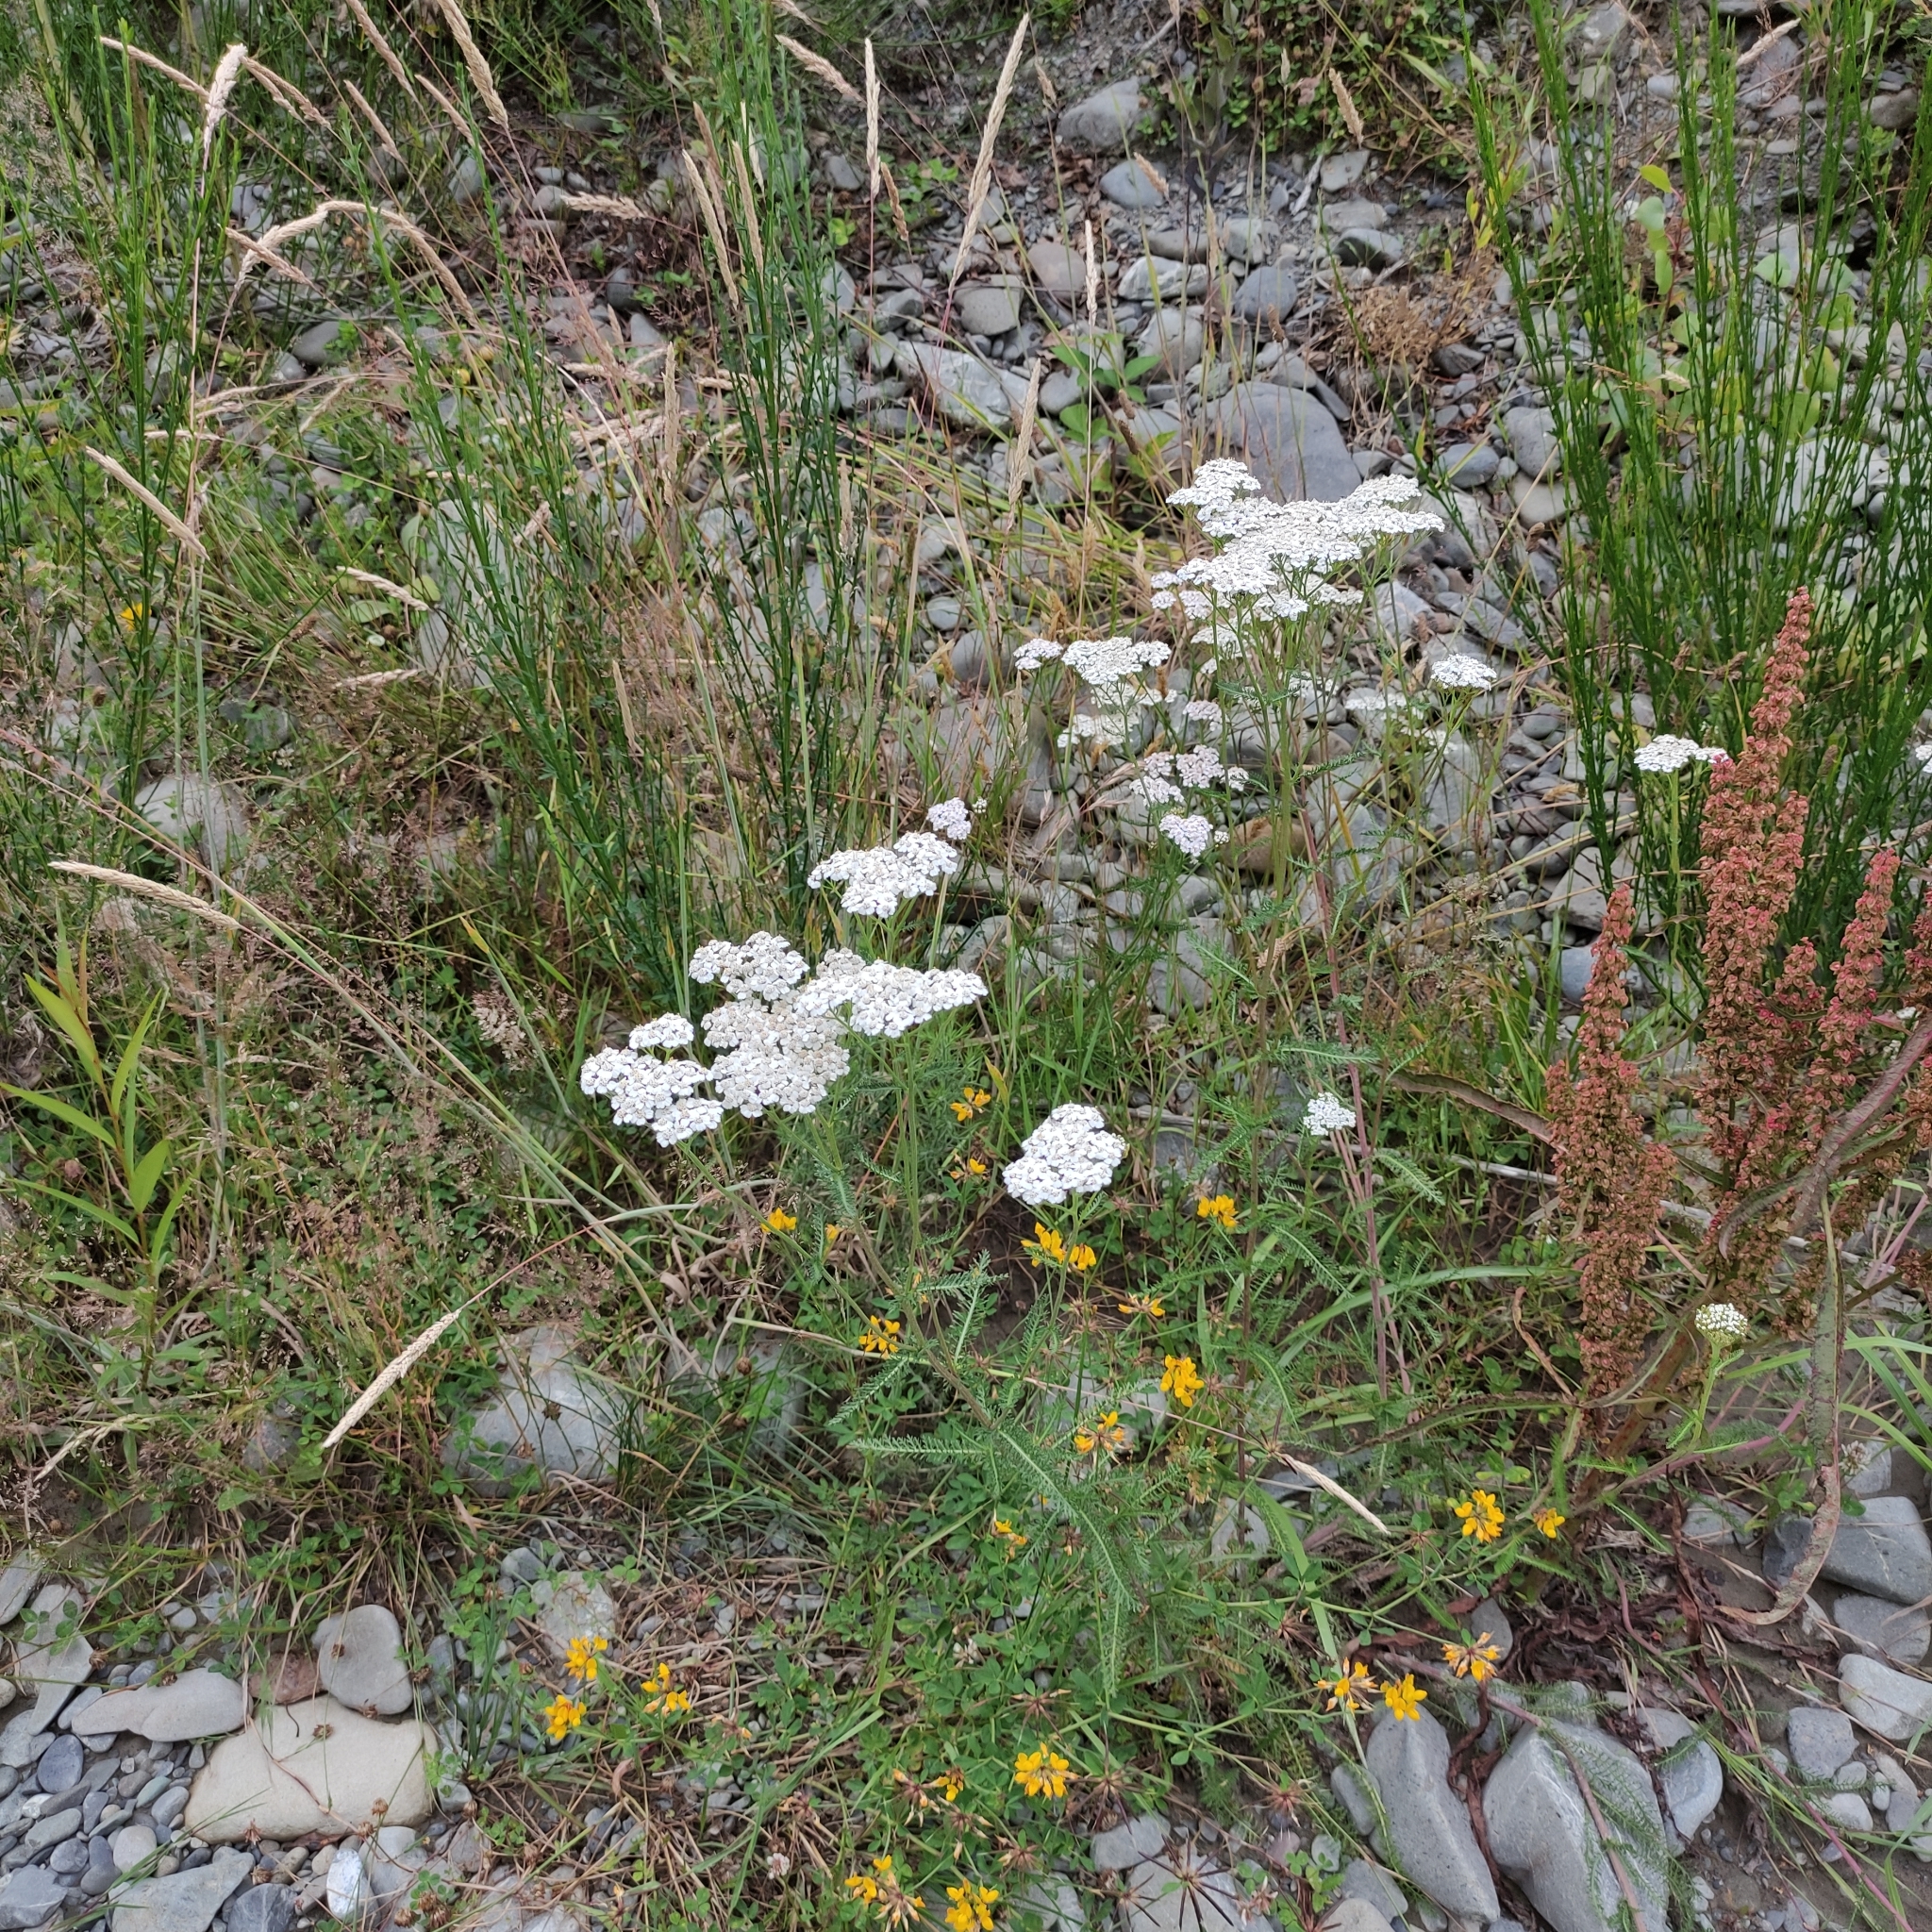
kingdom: Plantae
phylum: Tracheophyta
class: Magnoliopsida
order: Asterales
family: Asteraceae
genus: Achillea
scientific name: Achillea millefolium
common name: Yarrow
